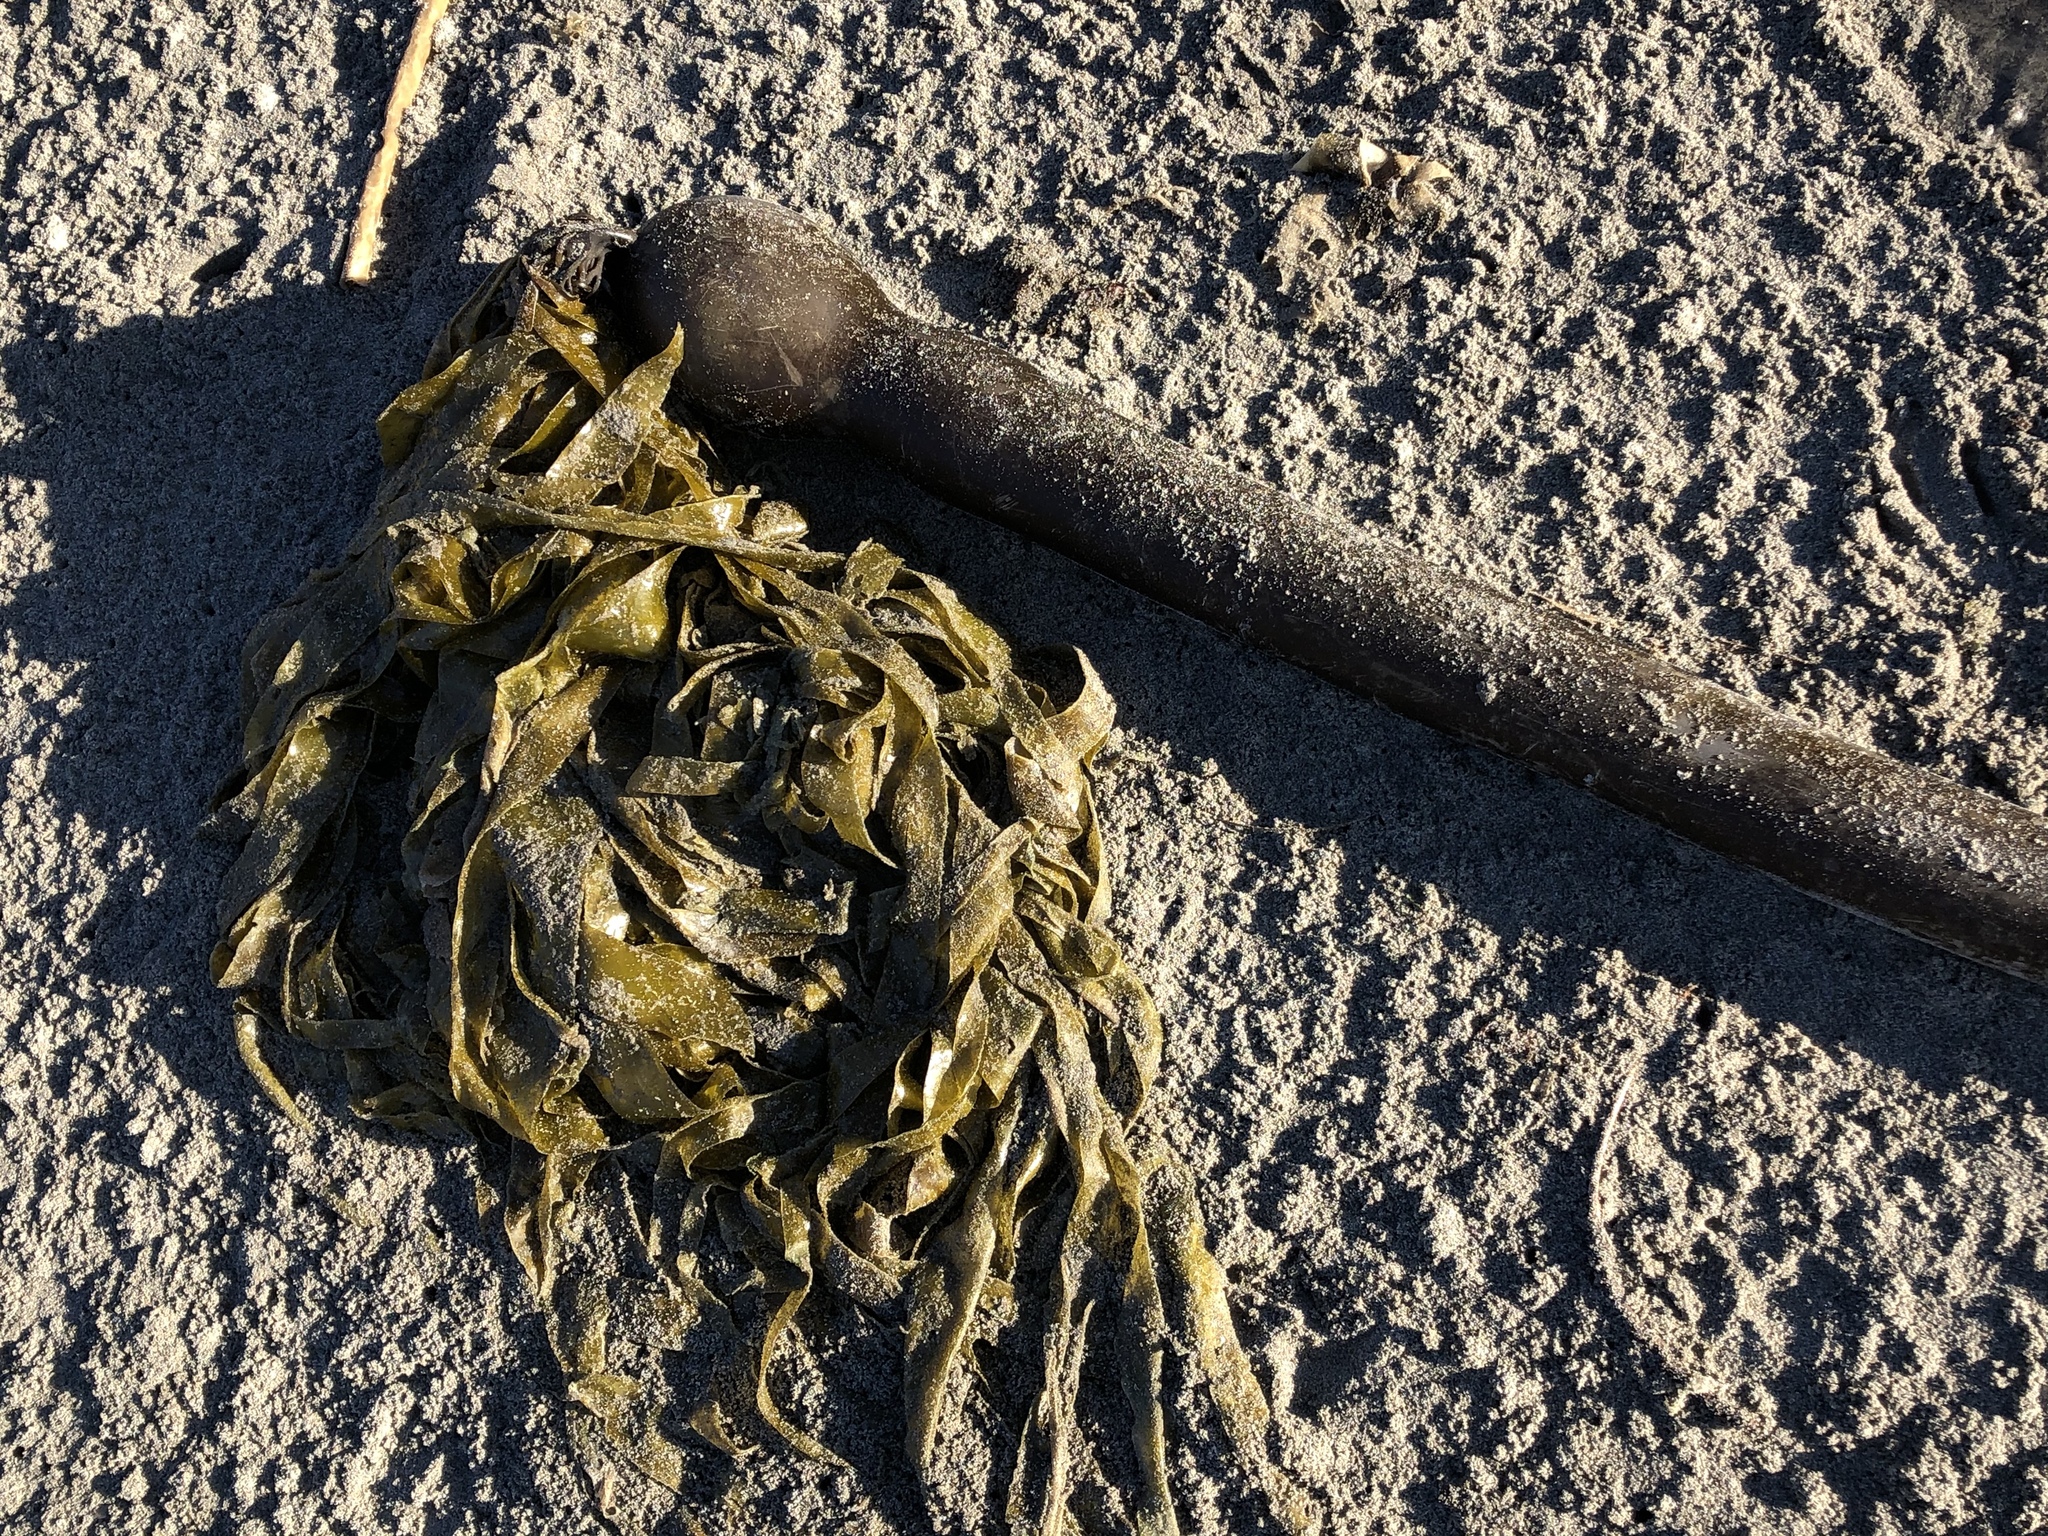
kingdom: Chromista
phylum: Ochrophyta
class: Phaeophyceae
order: Laminariales
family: Laminariaceae
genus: Nereocystis
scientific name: Nereocystis luetkeana
